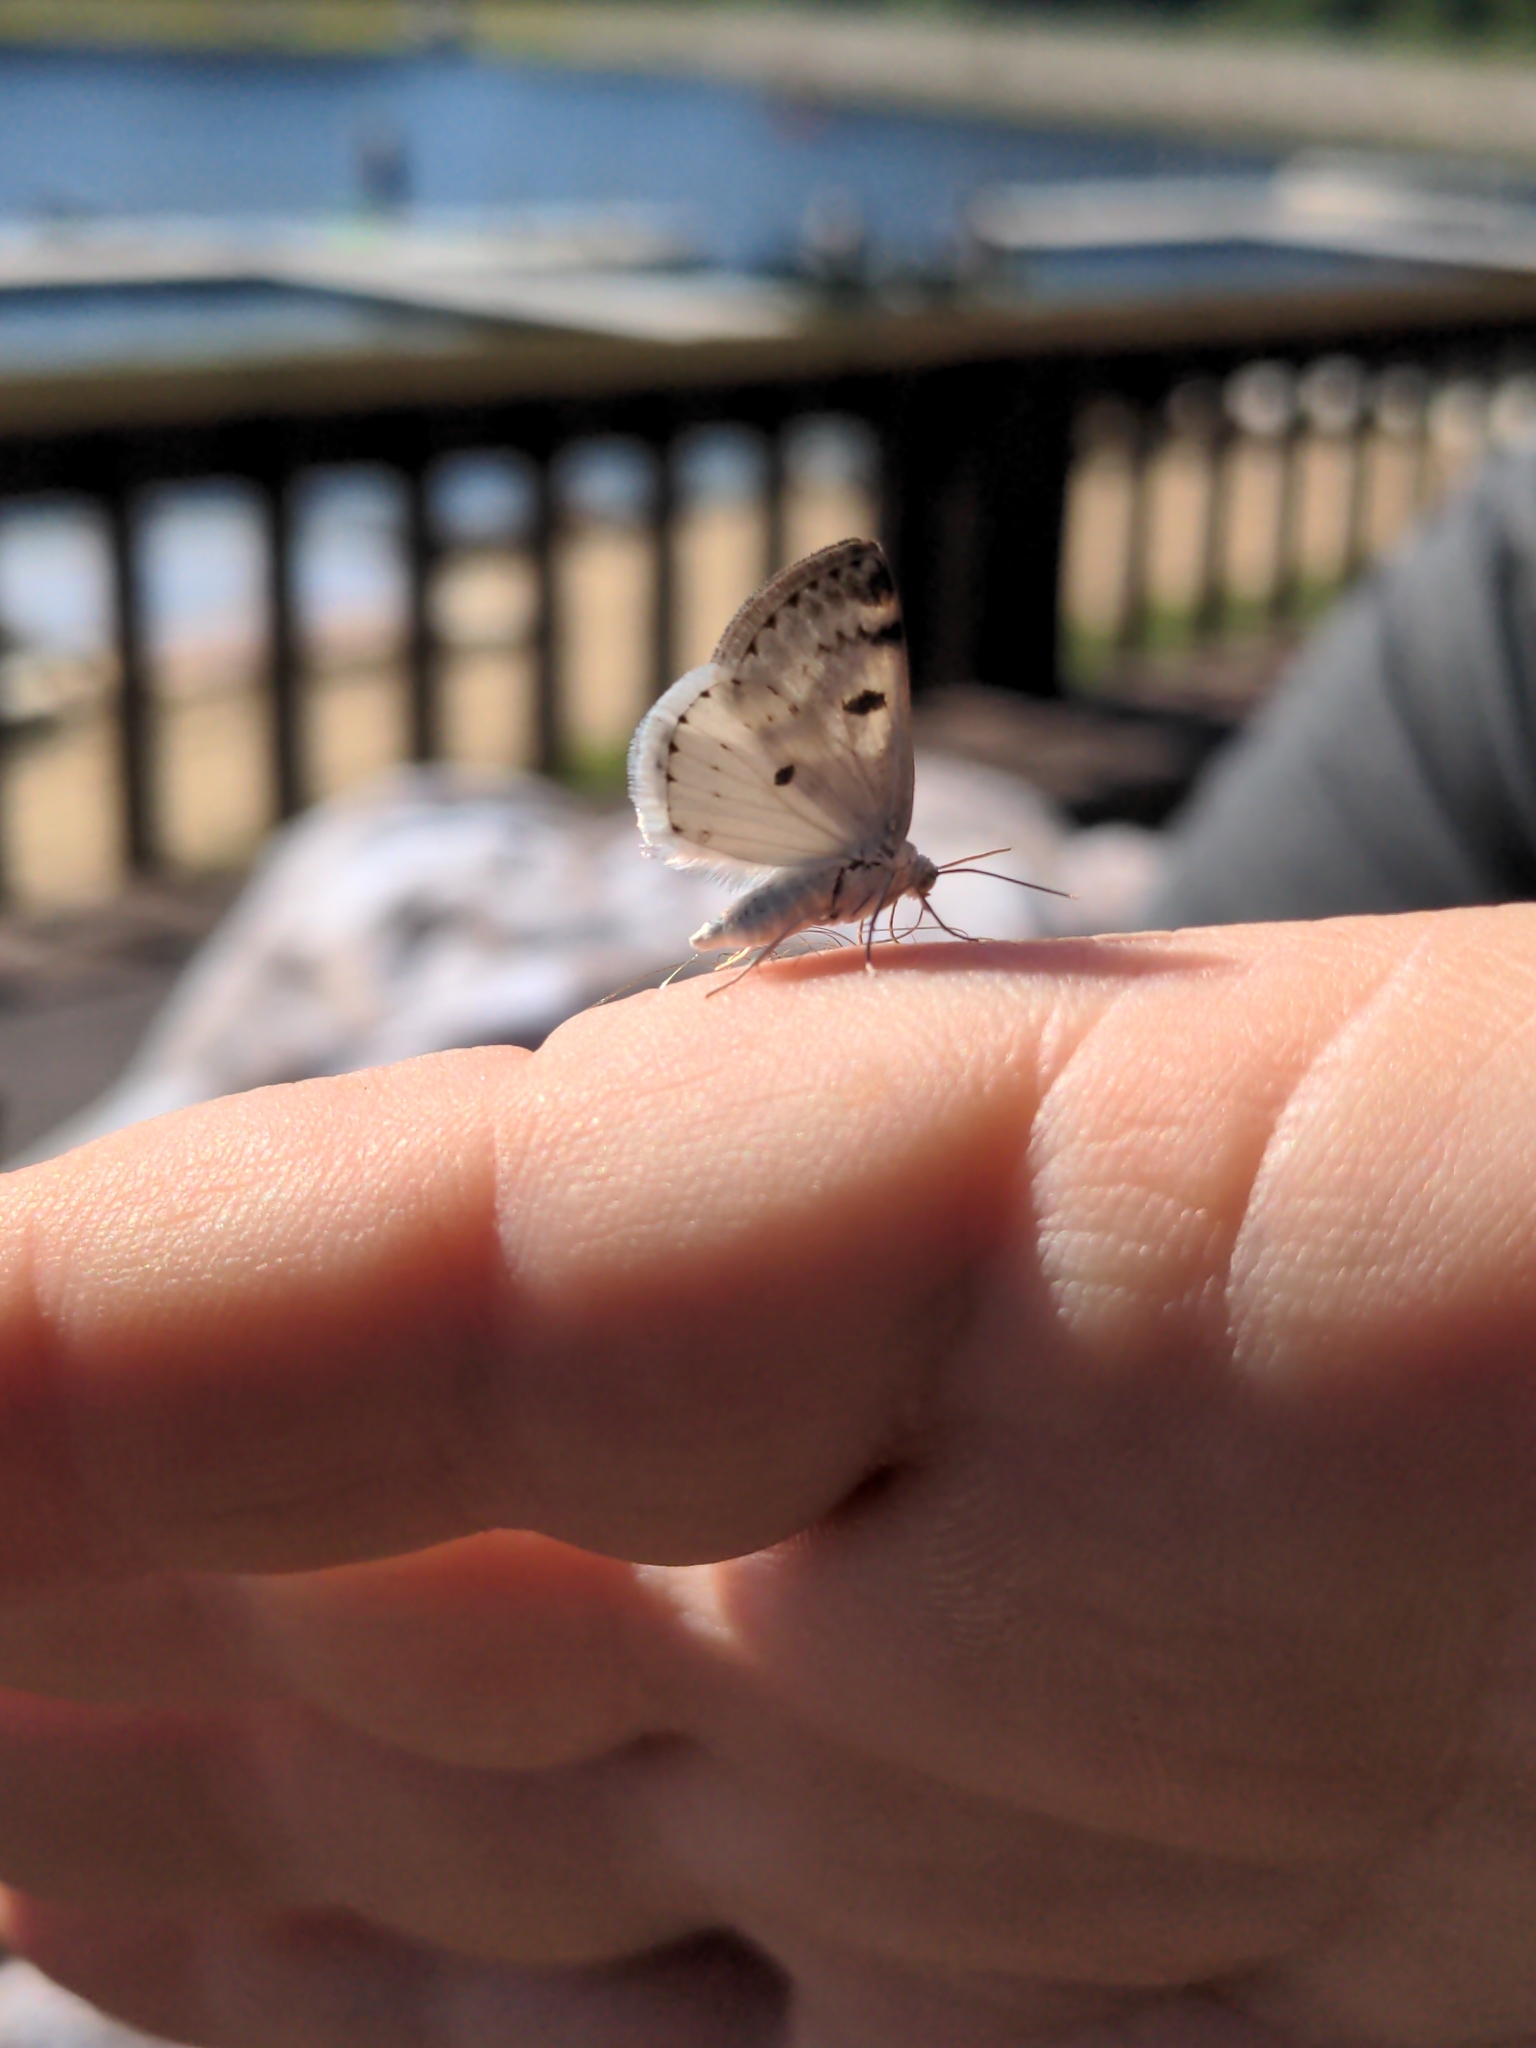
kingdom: Animalia
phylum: Arthropoda
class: Insecta
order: Lepidoptera
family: Geometridae
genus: Lomographa
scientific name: Lomographa semiclarata
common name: Bluish spring moth
